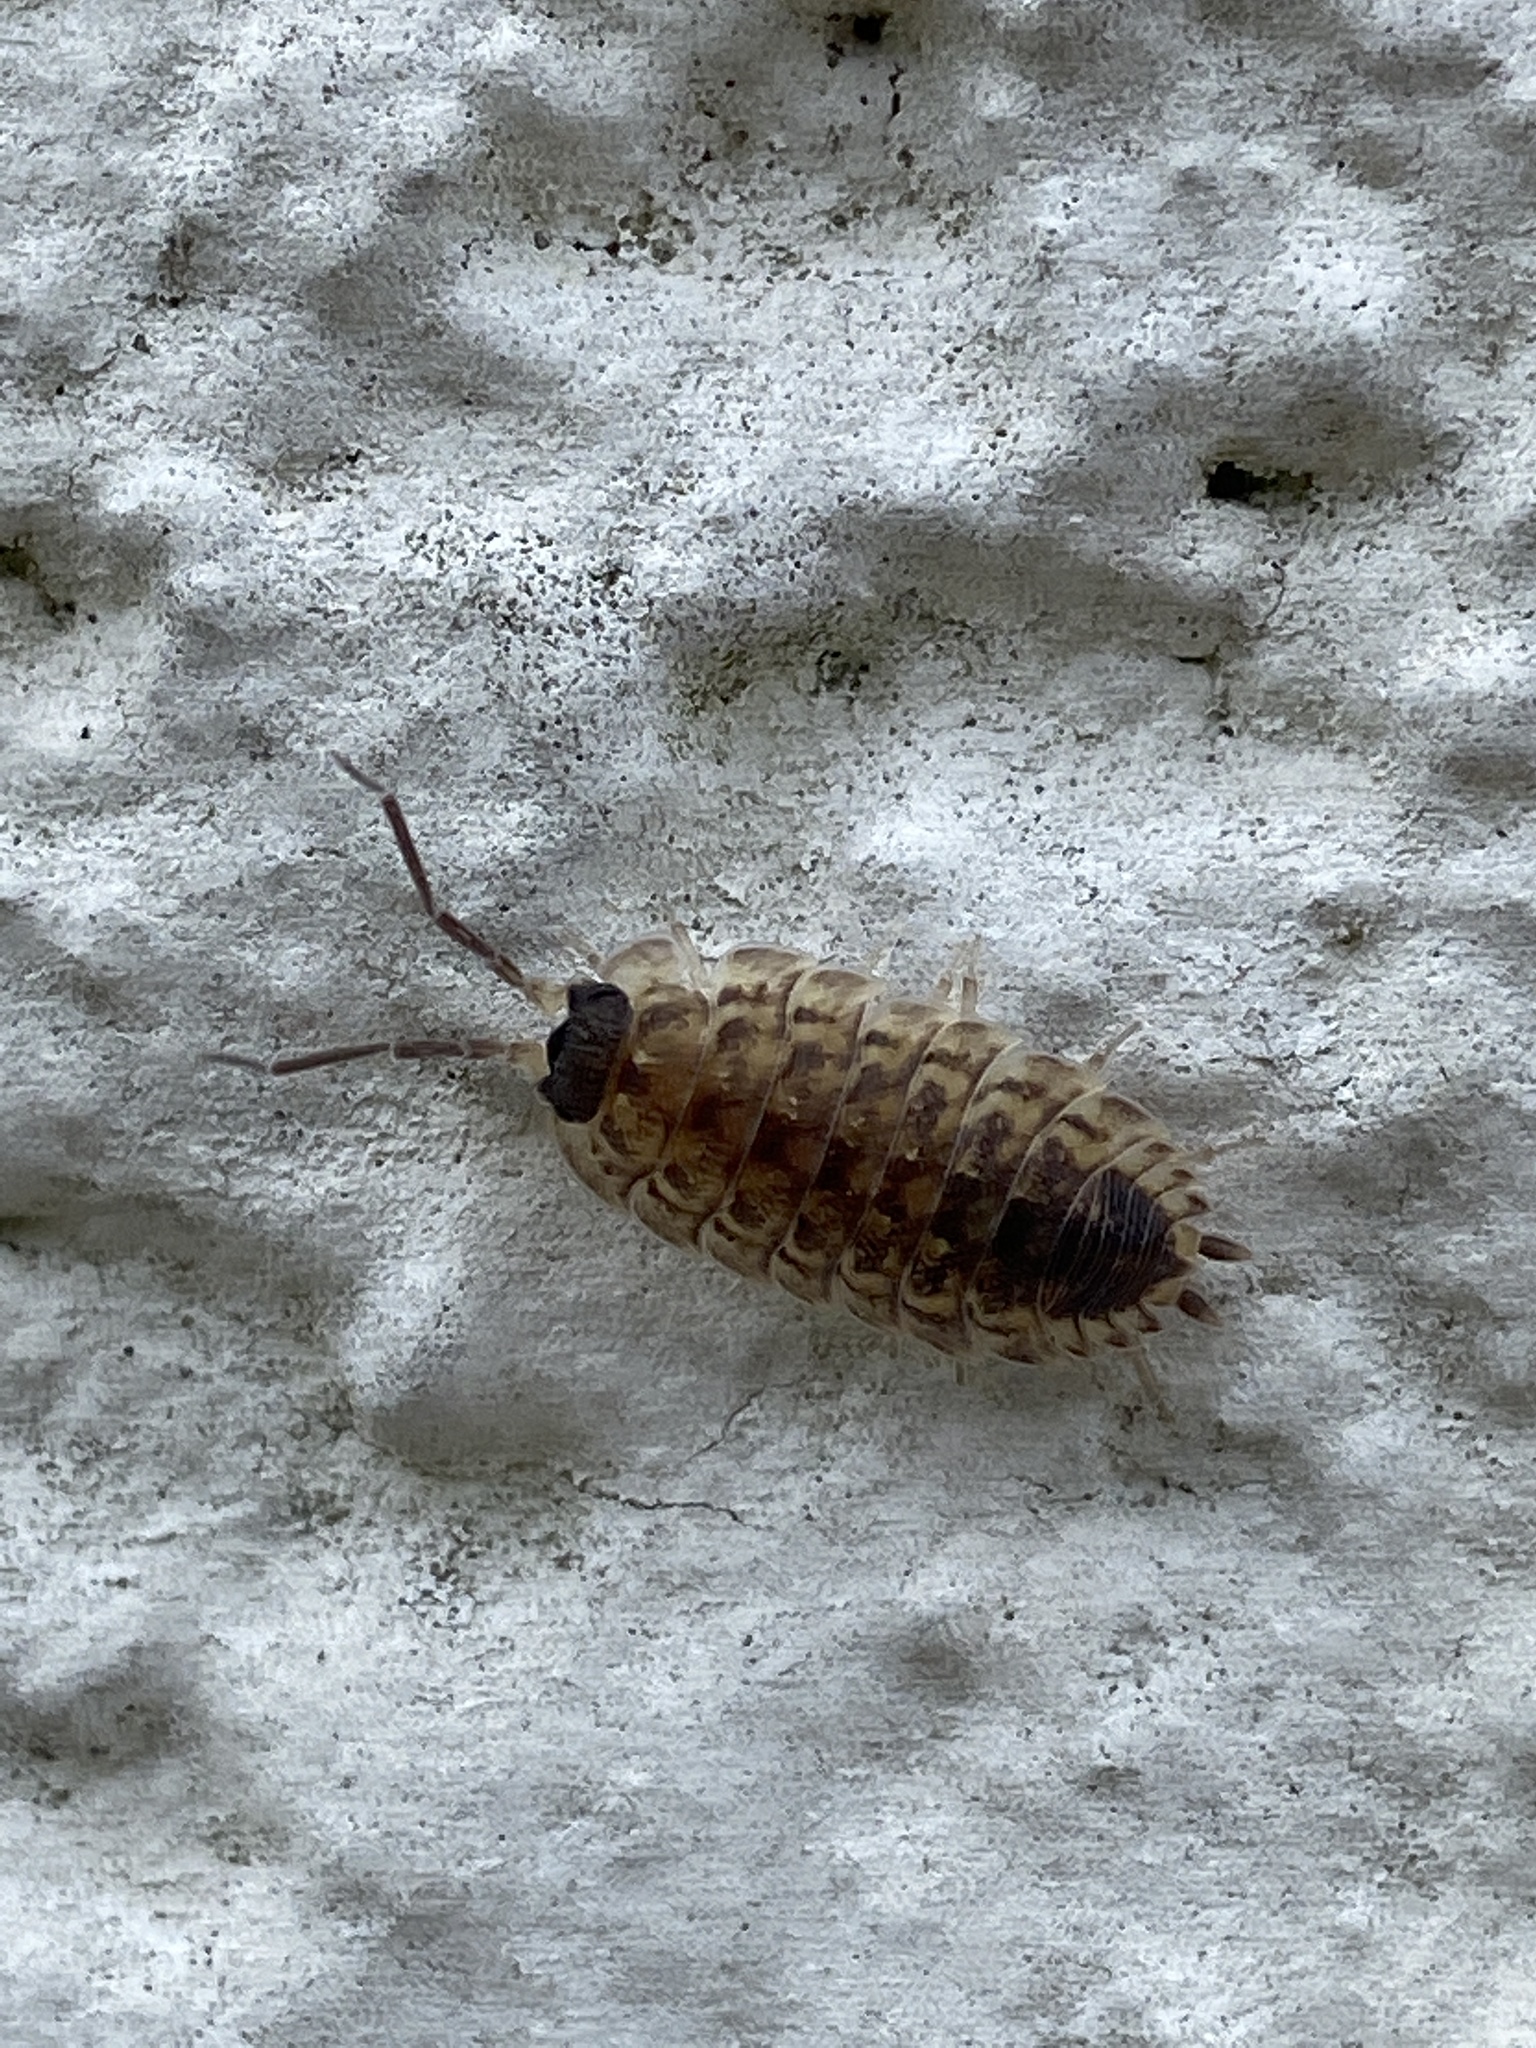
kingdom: Animalia
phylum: Arthropoda
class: Malacostraca
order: Isopoda
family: Porcellionidae
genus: Porcellio
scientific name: Porcellio spinicornis
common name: Painted woodlouse
